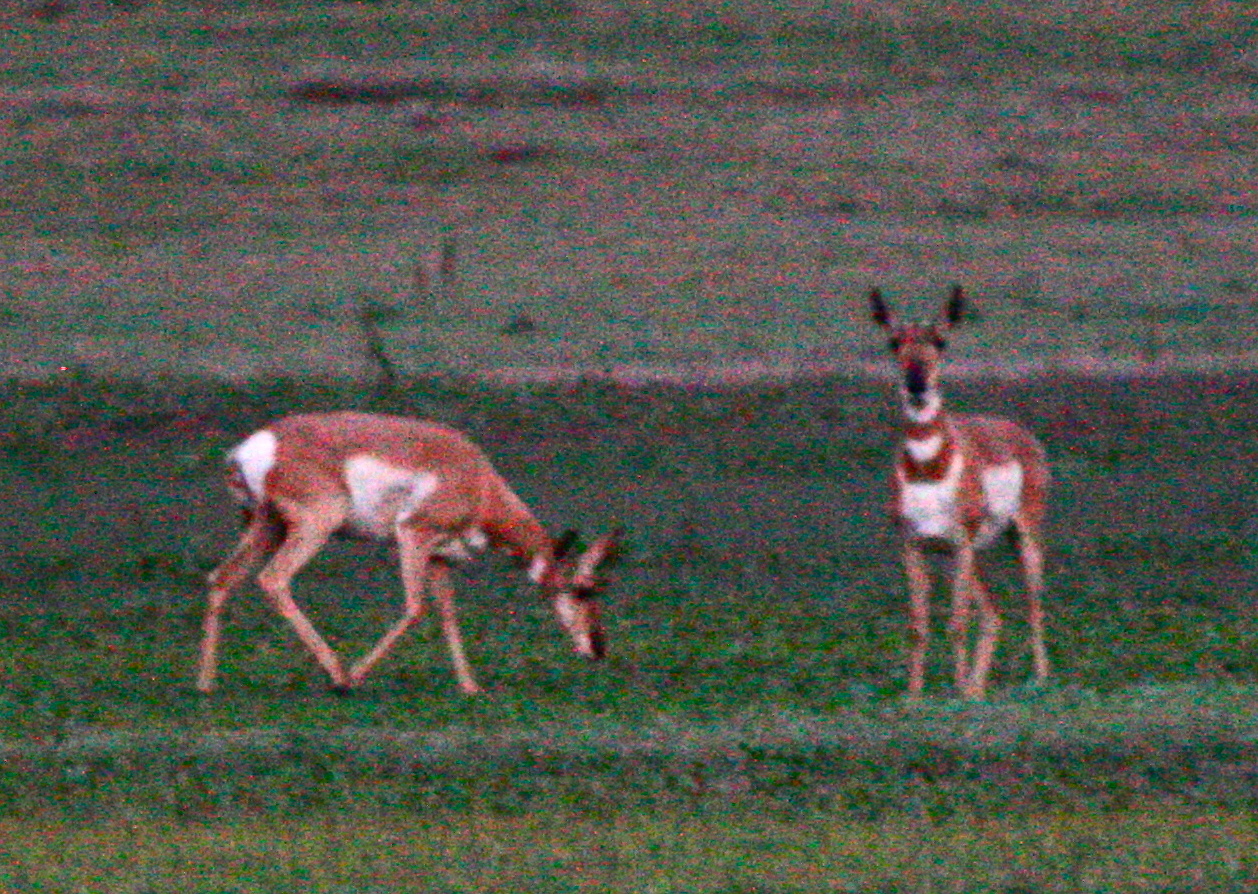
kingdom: Animalia
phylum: Chordata
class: Mammalia
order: Artiodactyla
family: Antilocapridae
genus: Antilocapra
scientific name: Antilocapra americana
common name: Pronghorn
